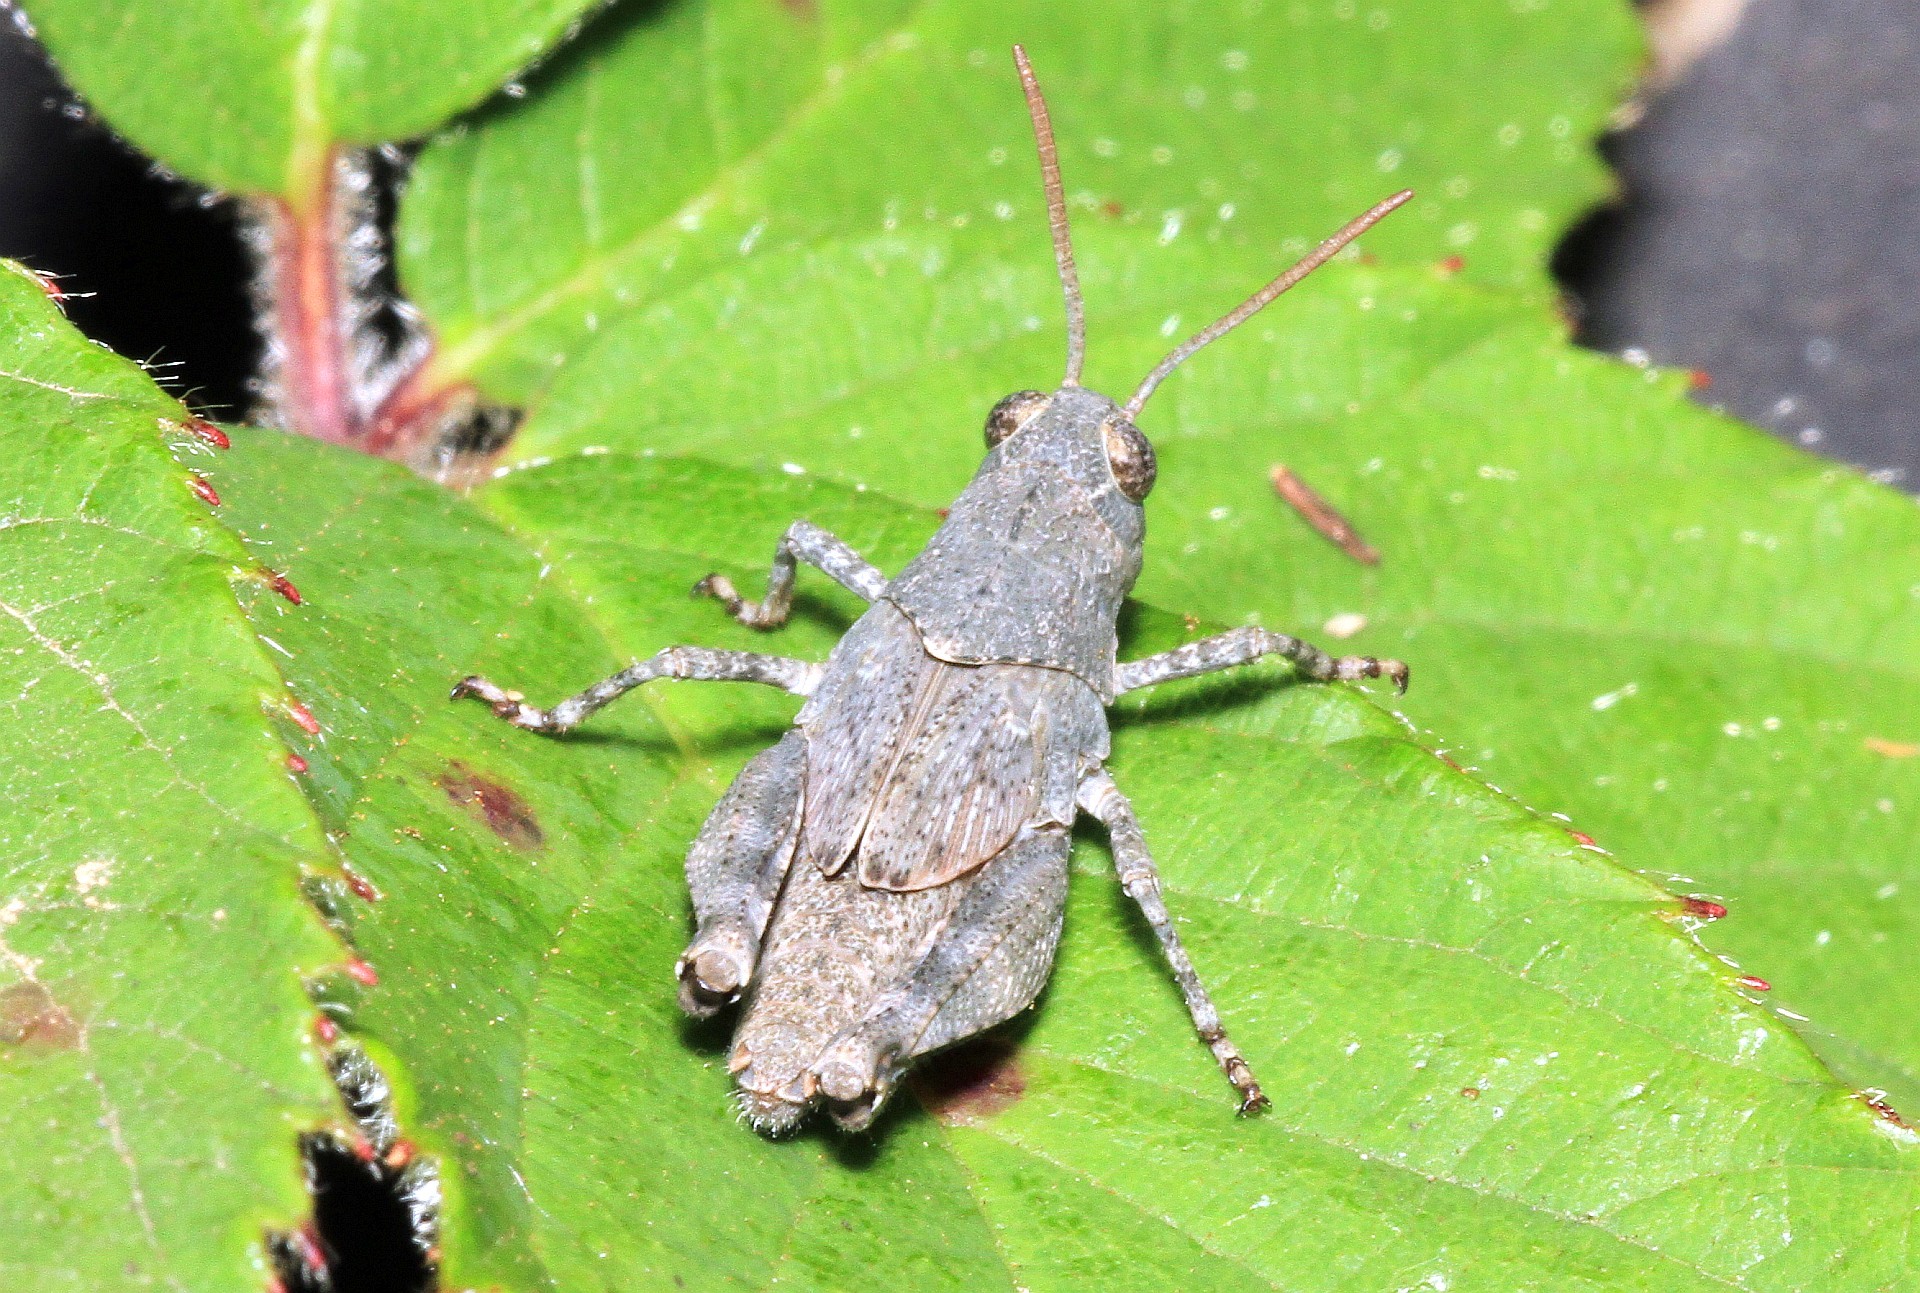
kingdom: Animalia
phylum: Arthropoda
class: Insecta
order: Orthoptera
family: Acrididae
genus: Oedipoda
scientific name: Oedipoda germanica
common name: Red band-winged grasshopper
